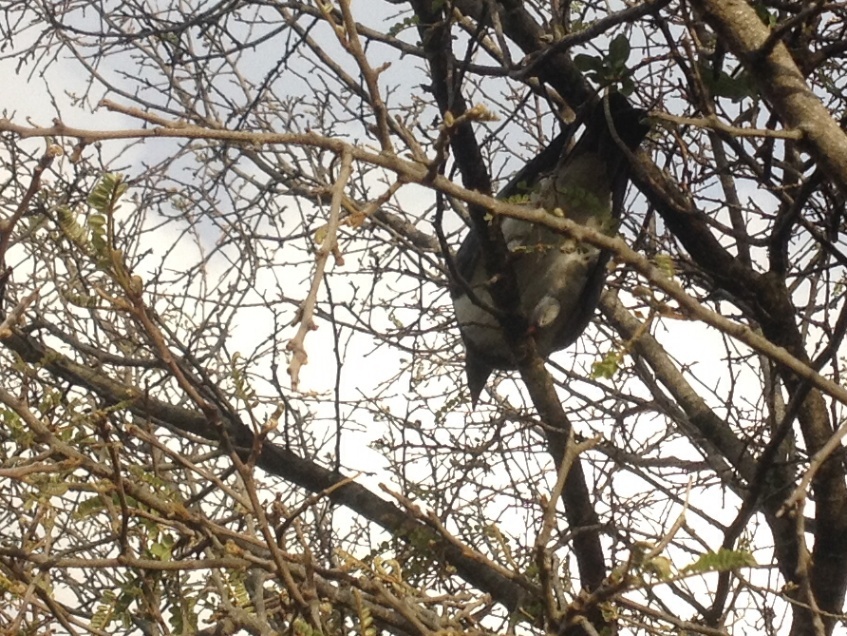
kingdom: Animalia
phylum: Chordata
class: Aves
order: Columbiformes
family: Columbidae
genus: Hemiphaga
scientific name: Hemiphaga novaeseelandiae
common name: New zealand pigeon
